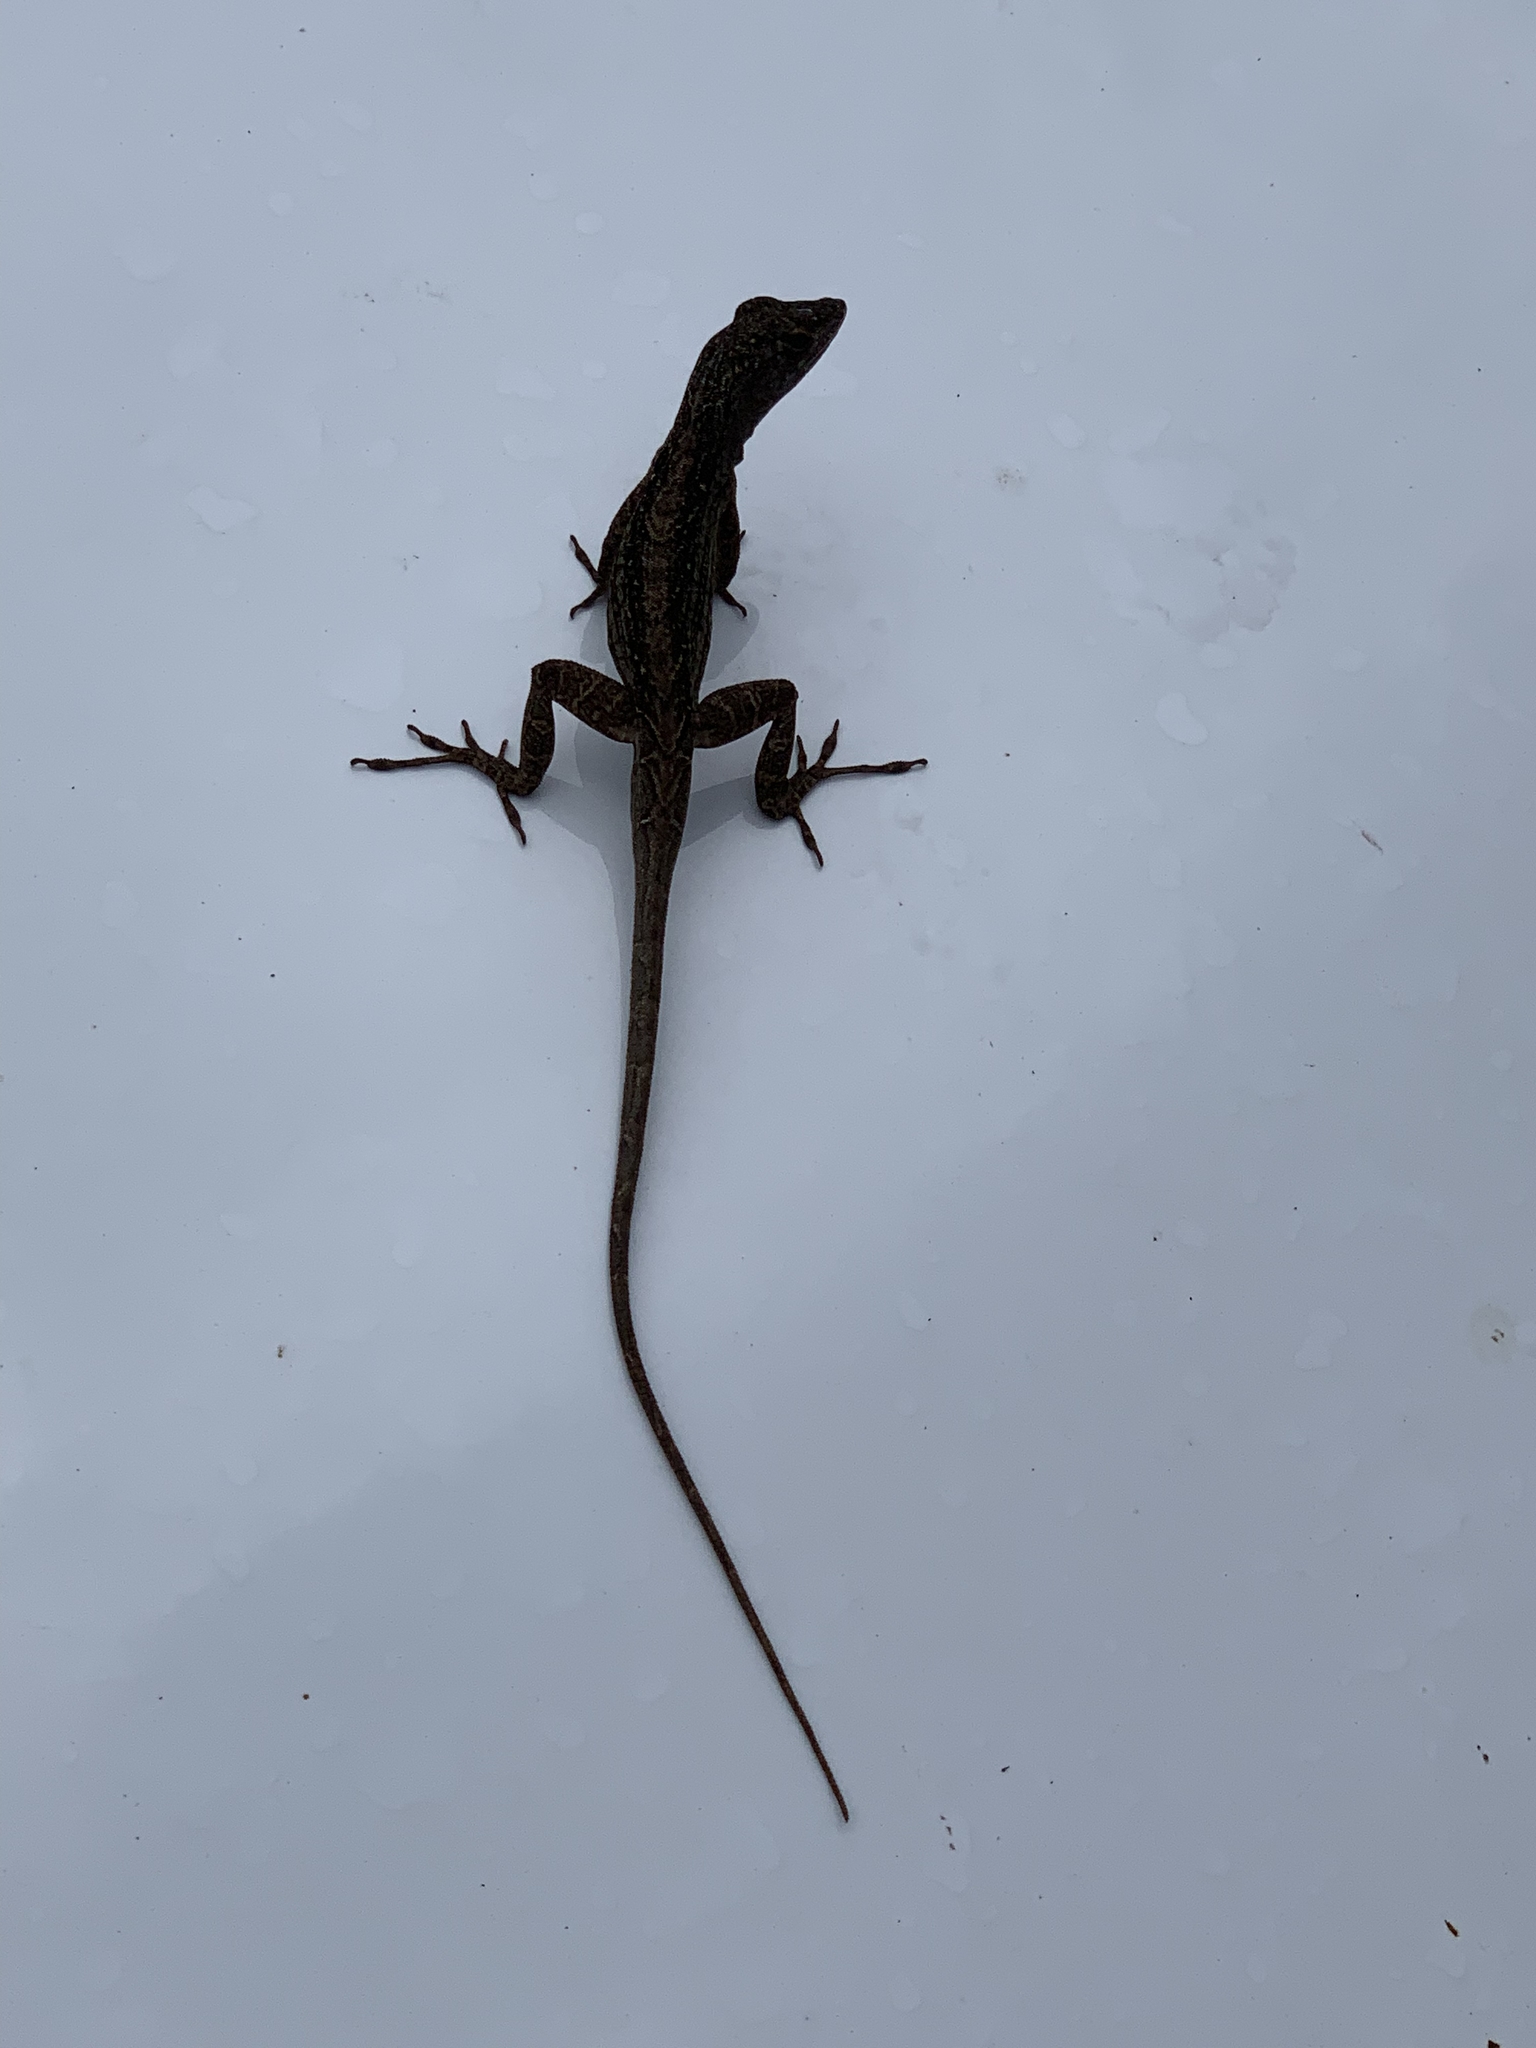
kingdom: Animalia
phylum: Chordata
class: Squamata
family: Dactyloidae
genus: Anolis
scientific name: Anolis sagrei
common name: Brown anole
